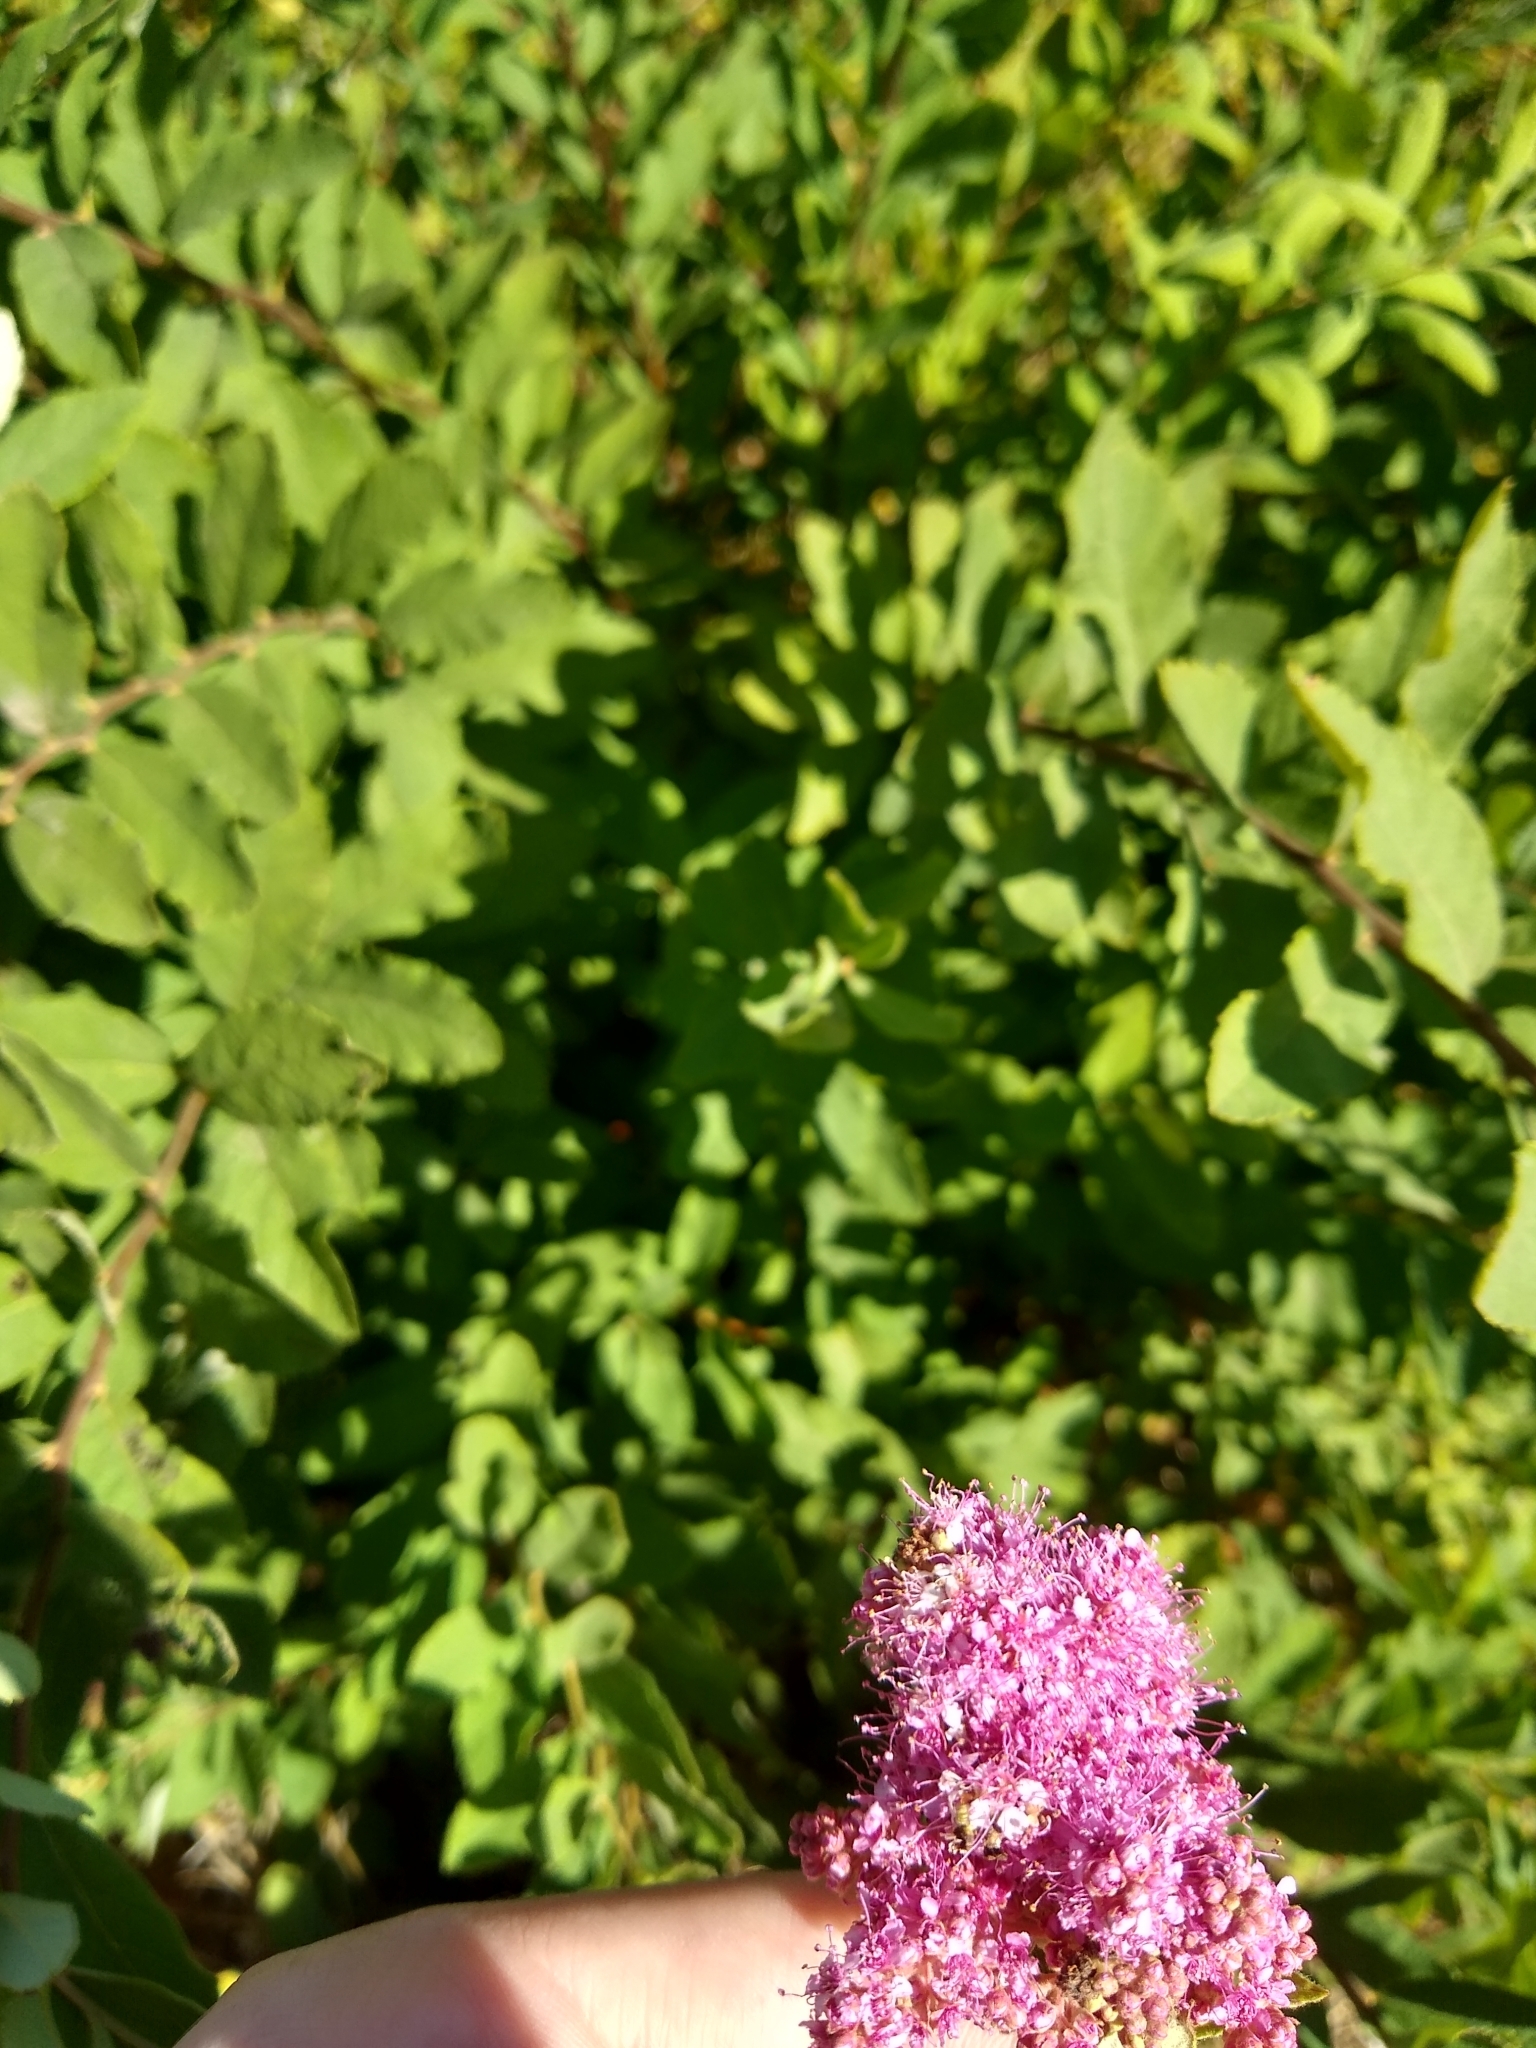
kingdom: Plantae
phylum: Tracheophyta
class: Magnoliopsida
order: Rosales
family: Rosaceae
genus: Spiraea
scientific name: Spiraea douglasii
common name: Steeplebush
